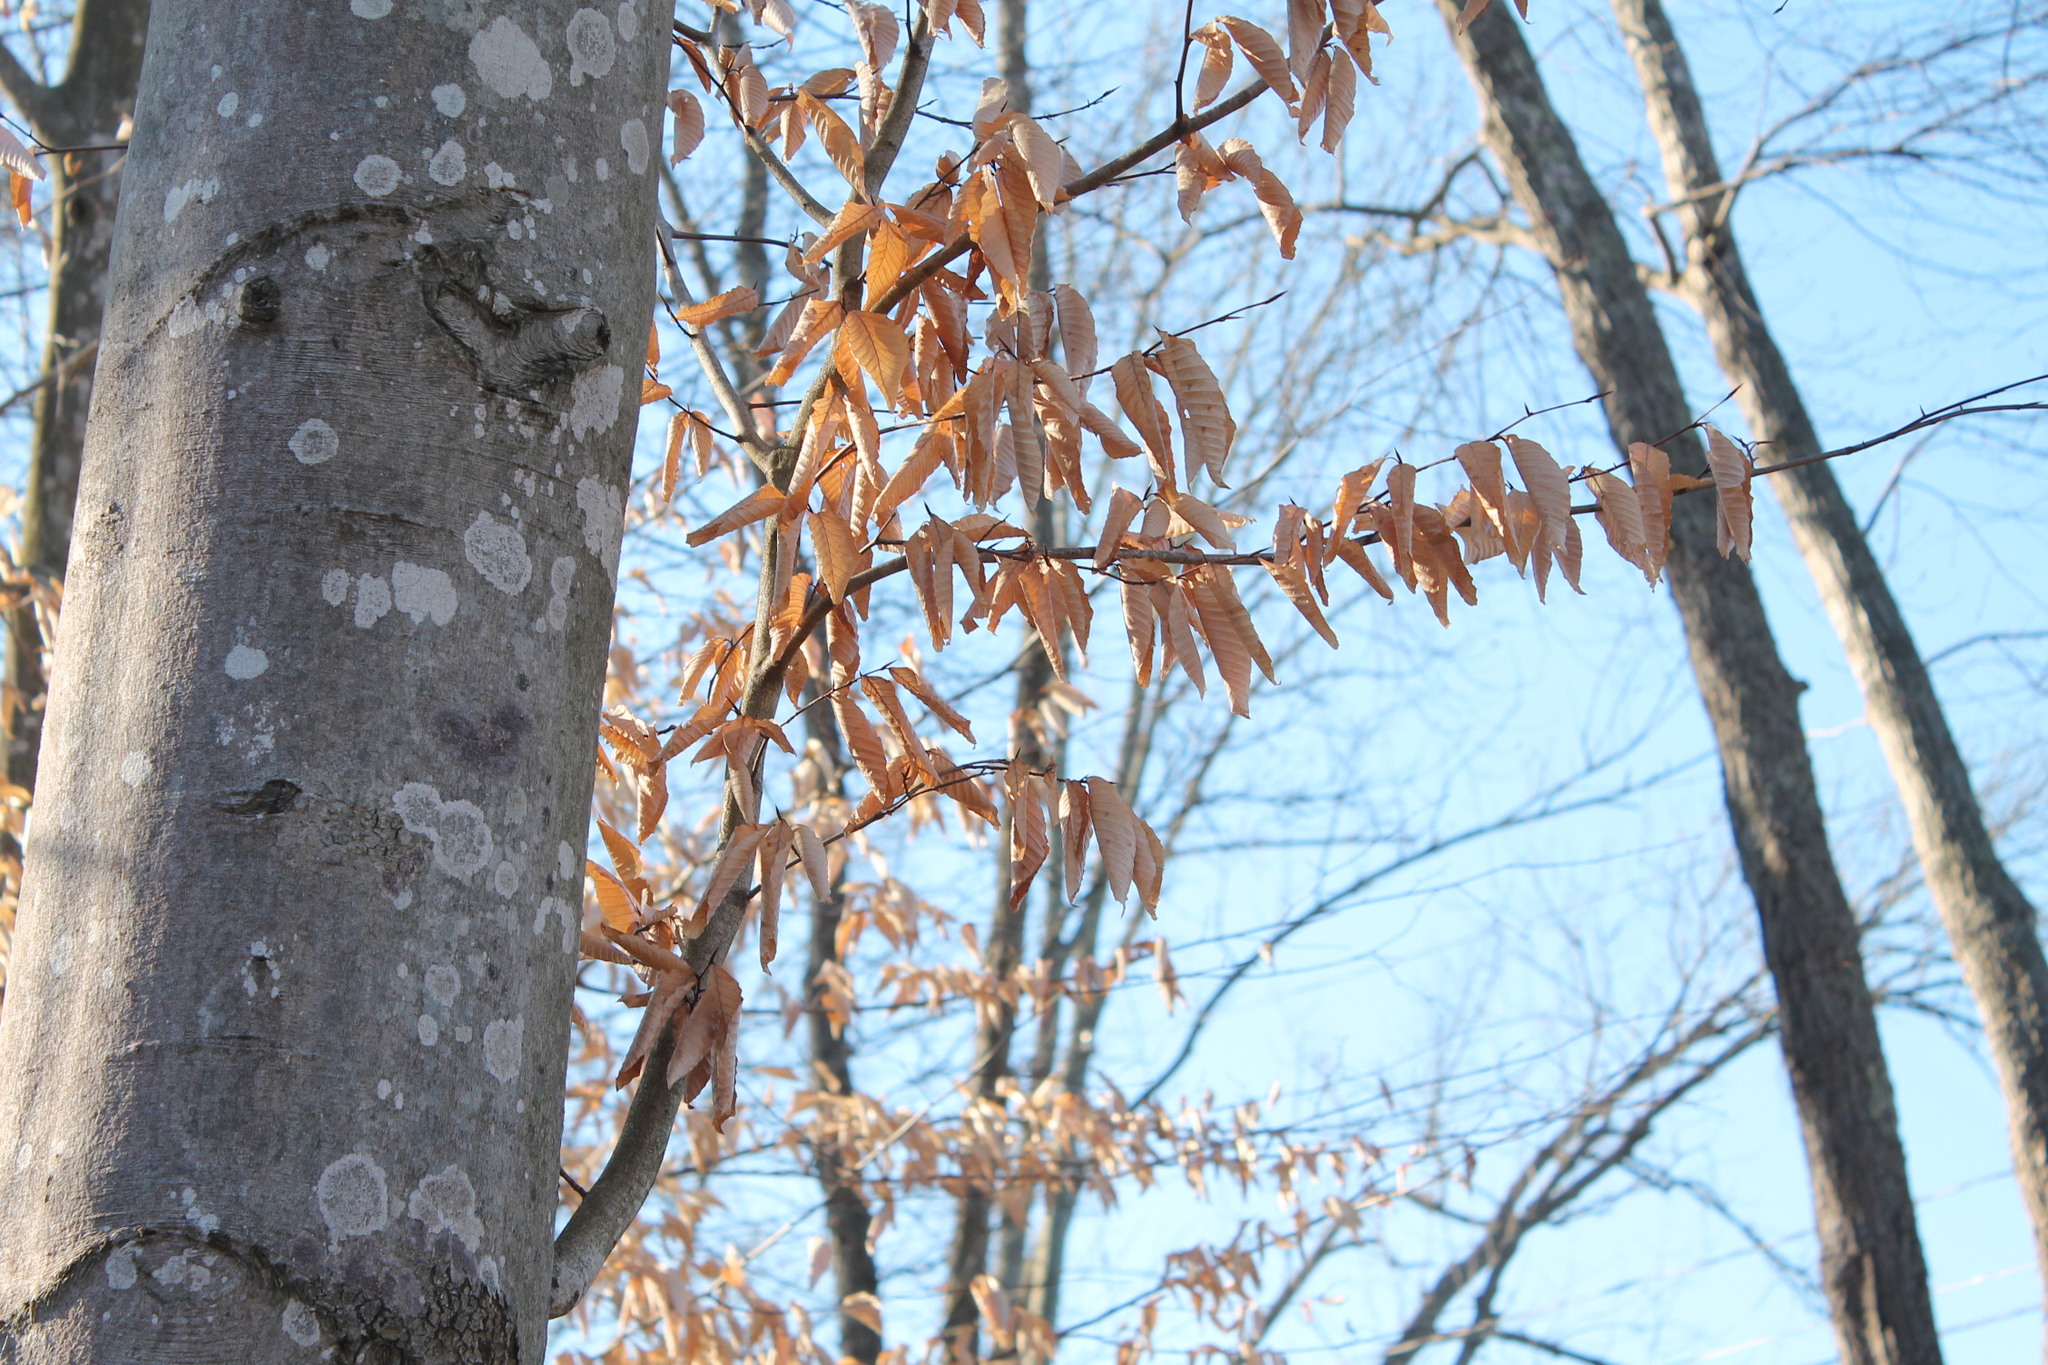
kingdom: Plantae
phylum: Tracheophyta
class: Magnoliopsida
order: Fagales
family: Fagaceae
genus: Fagus
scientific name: Fagus grandifolia
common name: American beech
